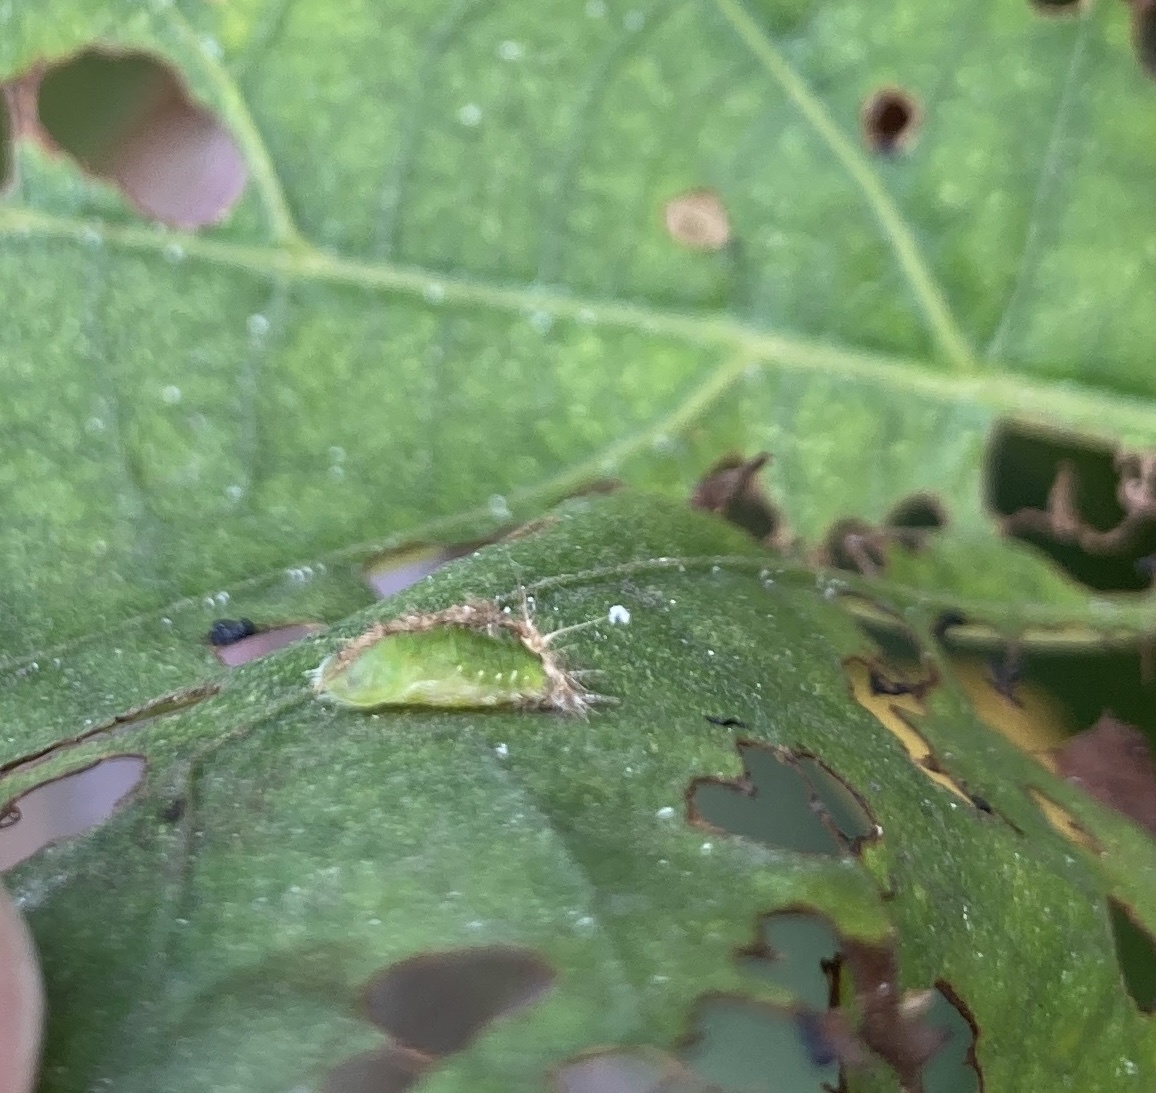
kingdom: Animalia
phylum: Arthropoda
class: Insecta
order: Coleoptera
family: Chrysomelidae
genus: Cassida
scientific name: Cassida compuncta
